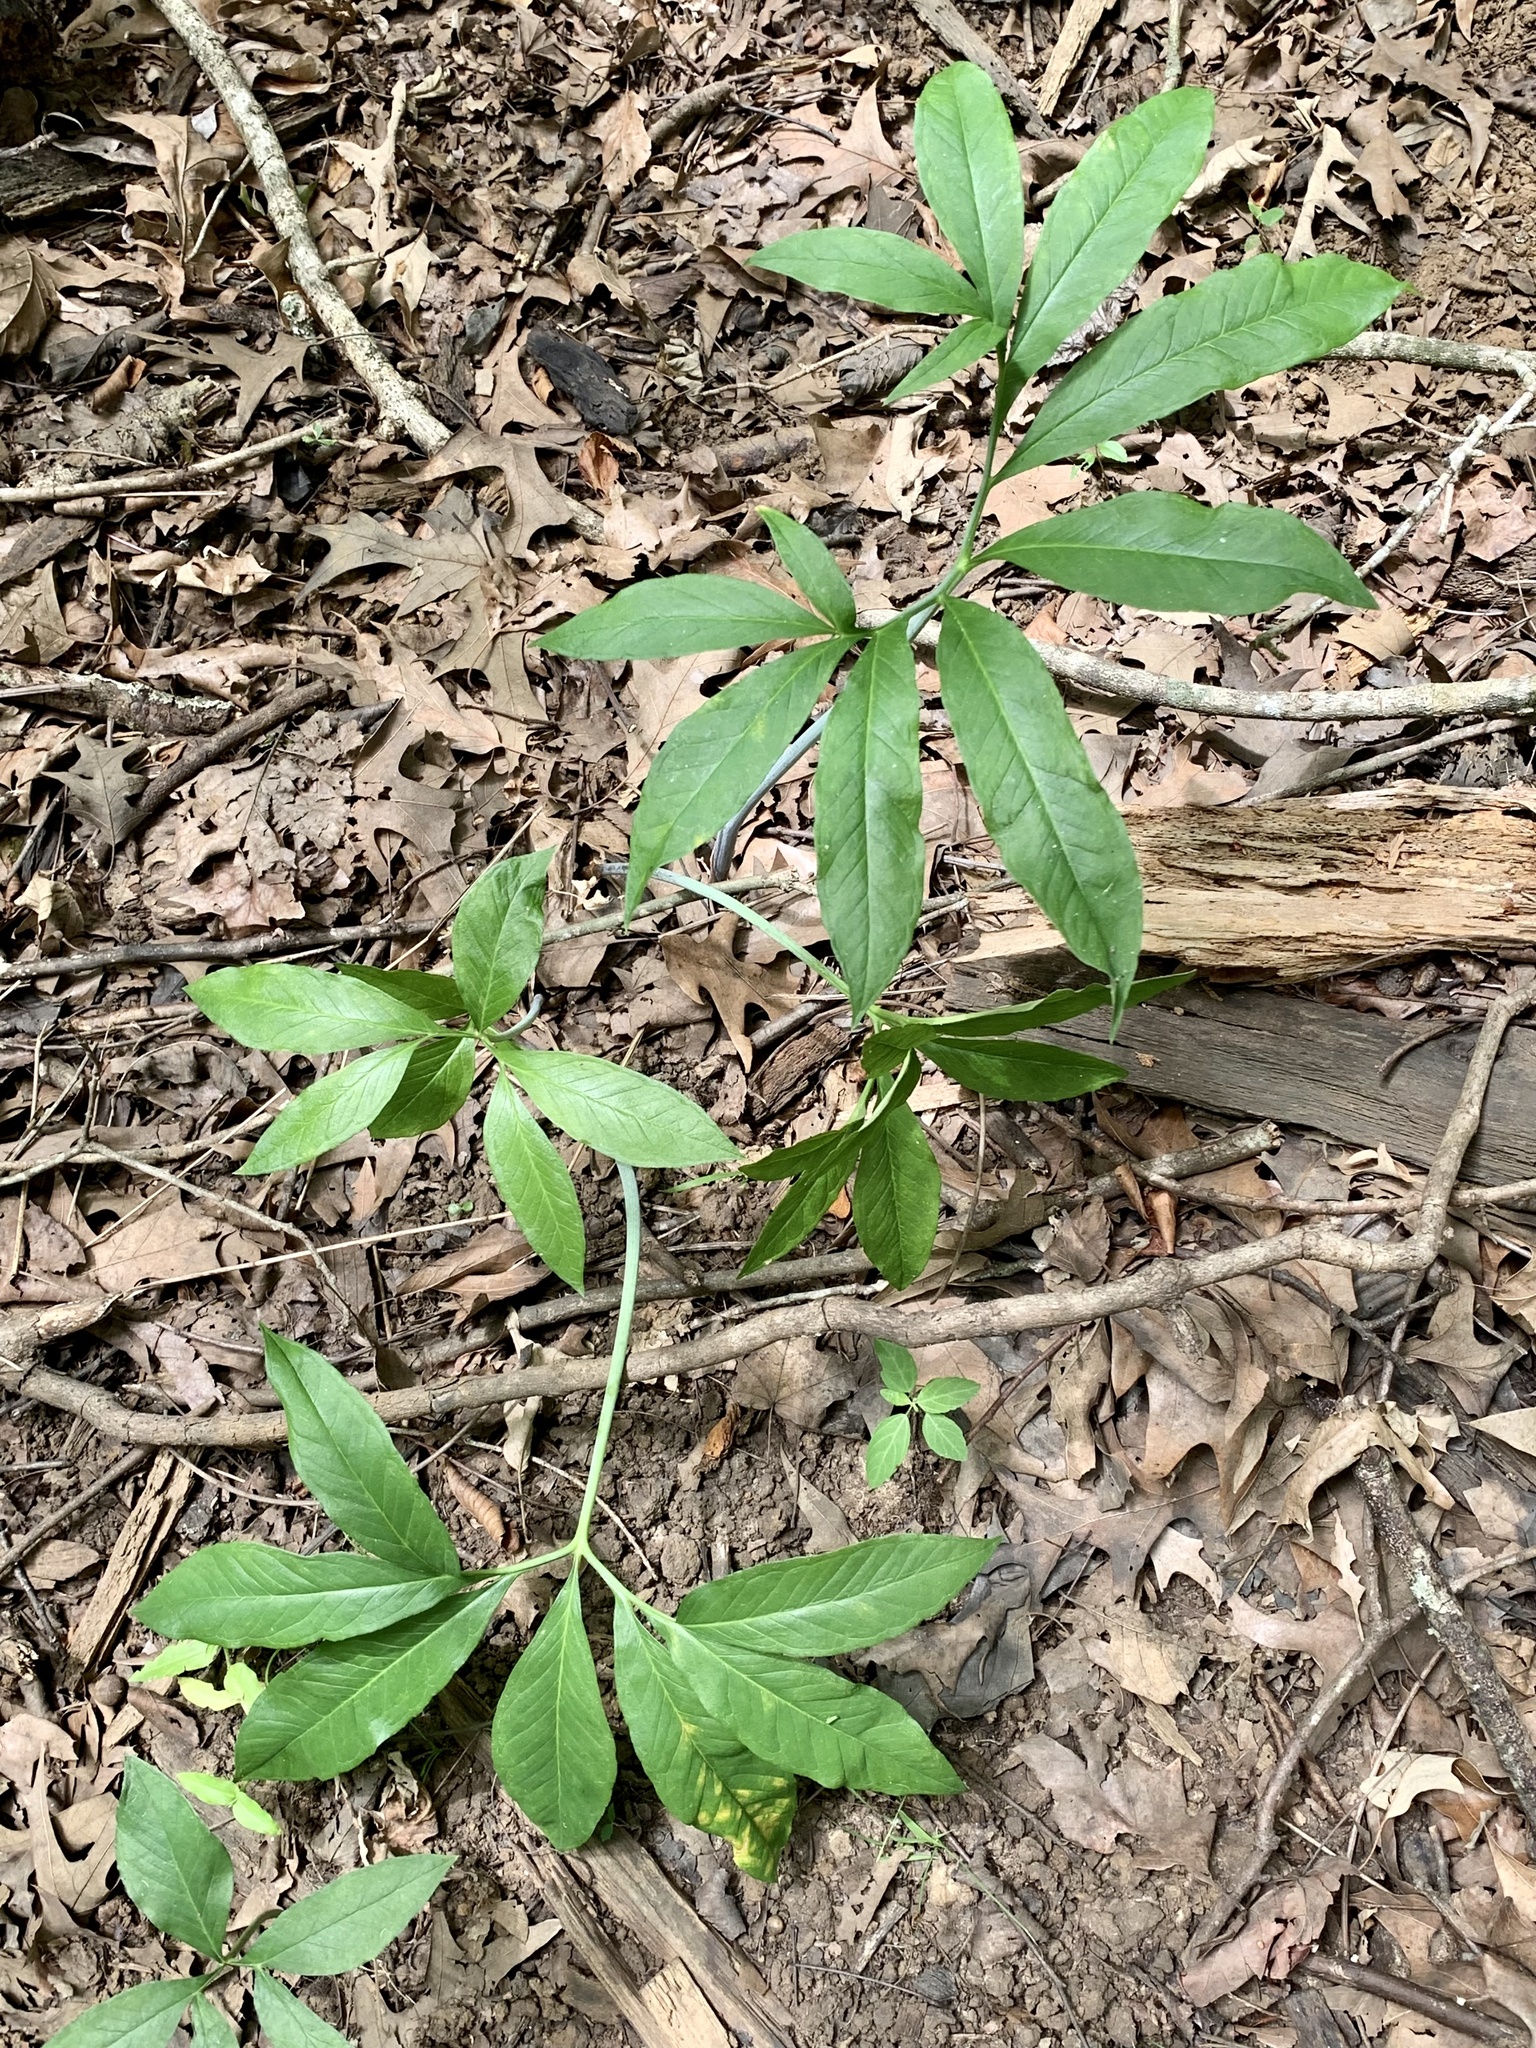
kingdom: Plantae
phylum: Tracheophyta
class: Liliopsida
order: Alismatales
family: Araceae
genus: Arisaema
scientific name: Arisaema dracontium
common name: Dragon-arum
